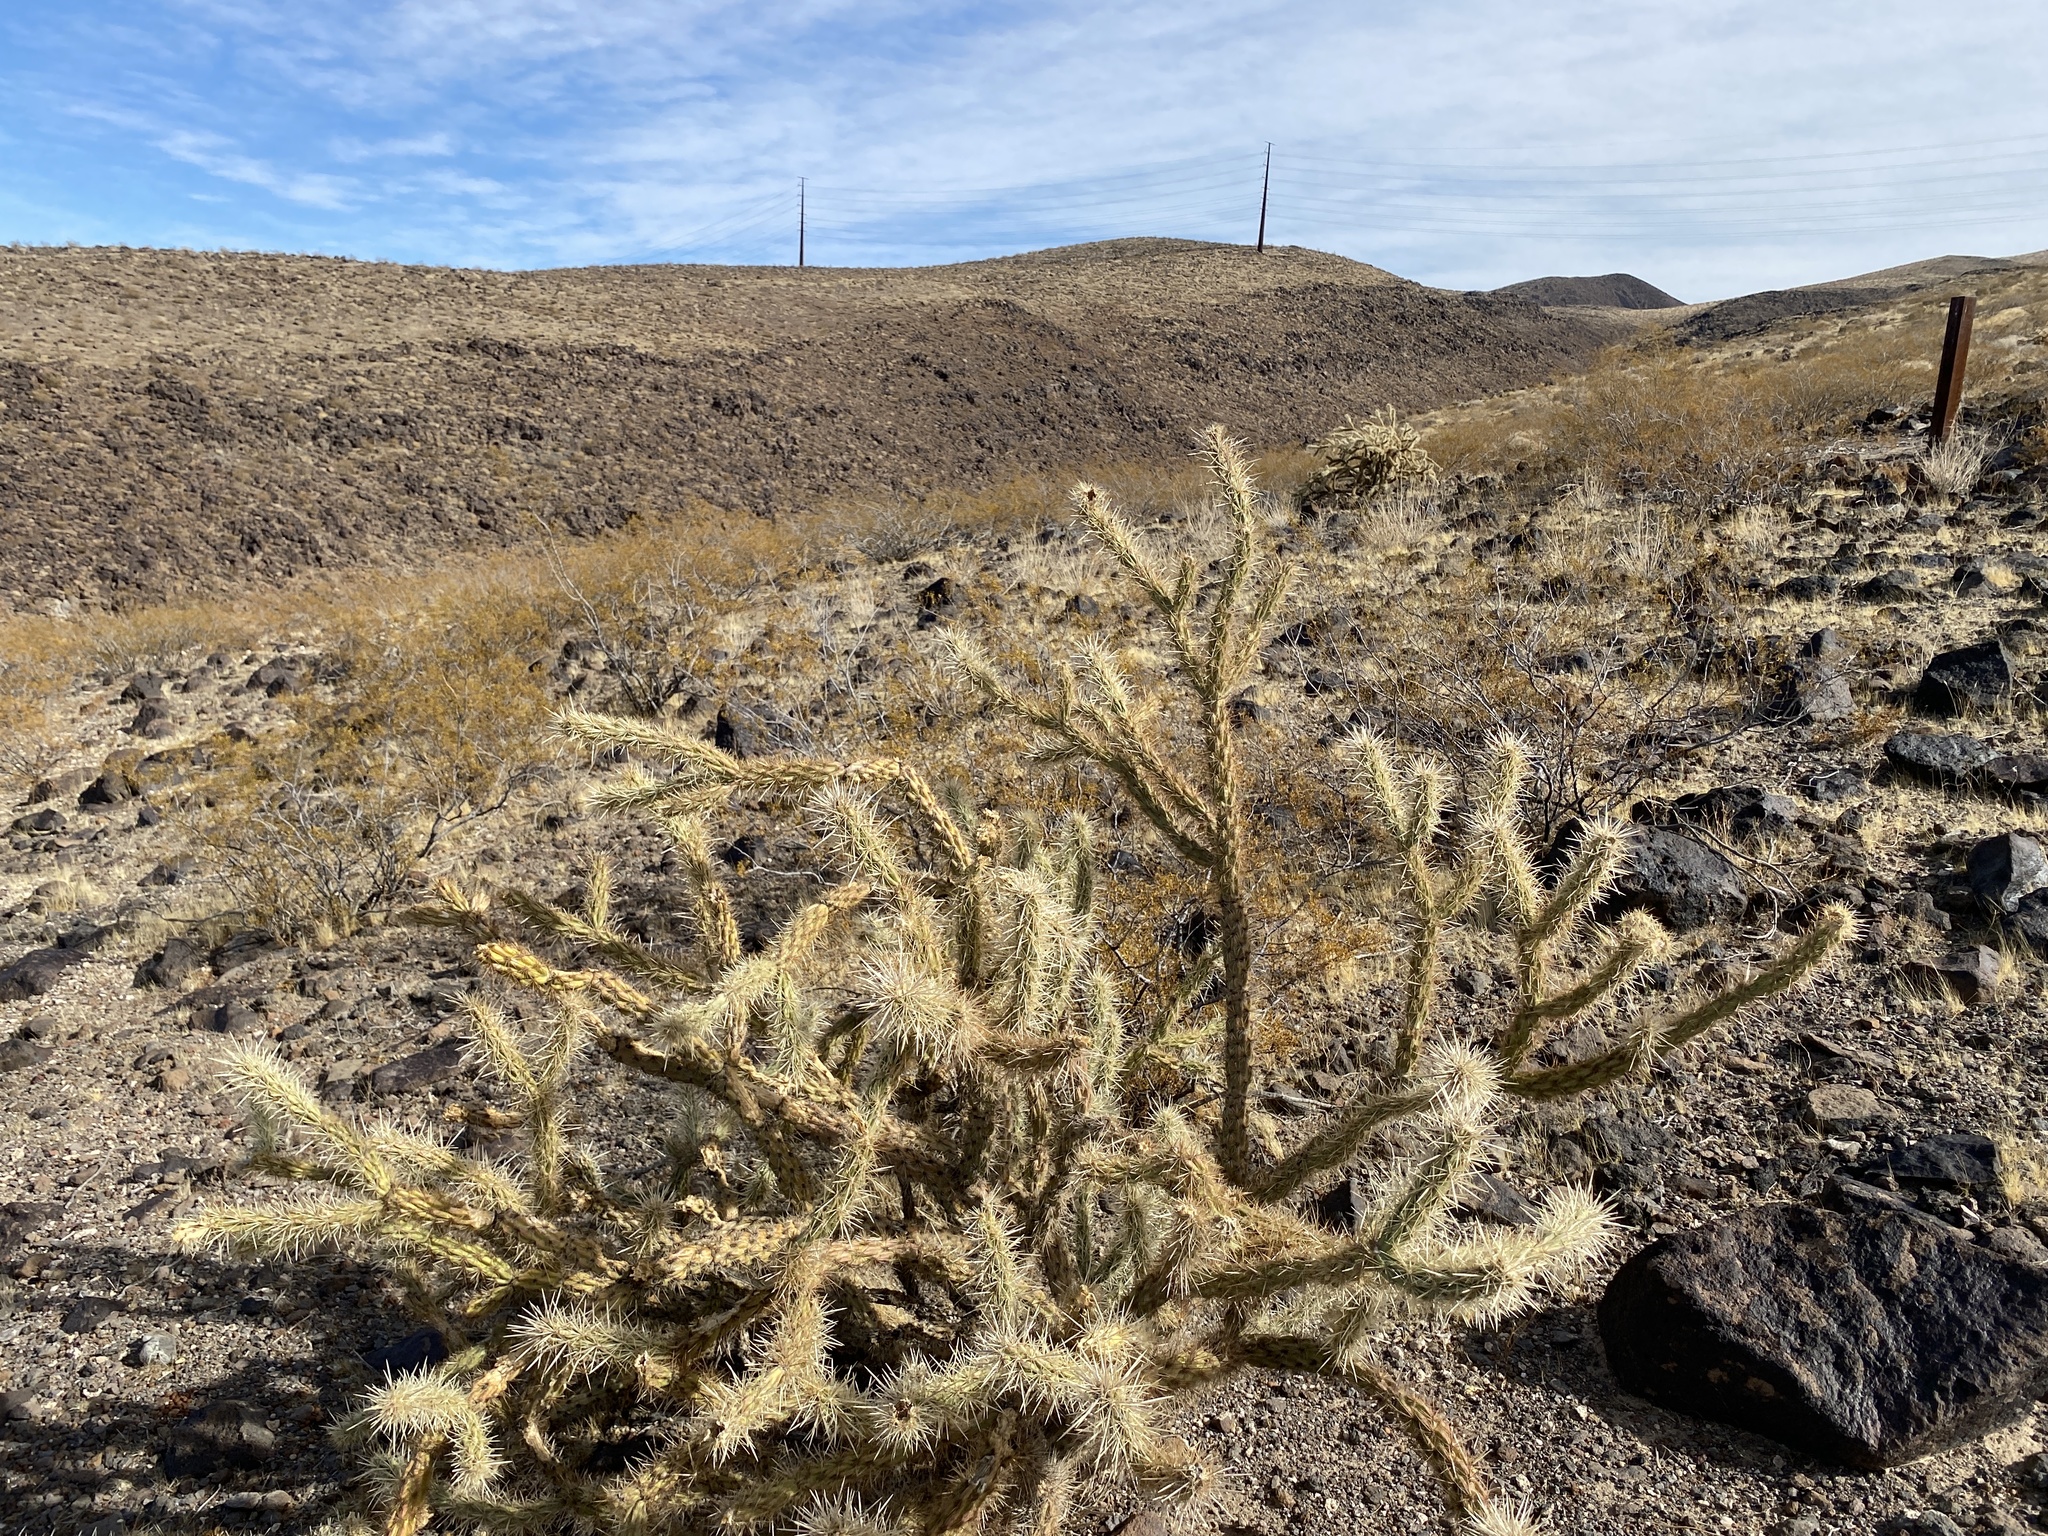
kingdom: Plantae
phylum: Tracheophyta
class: Magnoliopsida
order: Caryophyllales
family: Cactaceae
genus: Cylindropuntia
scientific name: Cylindropuntia acanthocarpa
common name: Buckhorn cholla
